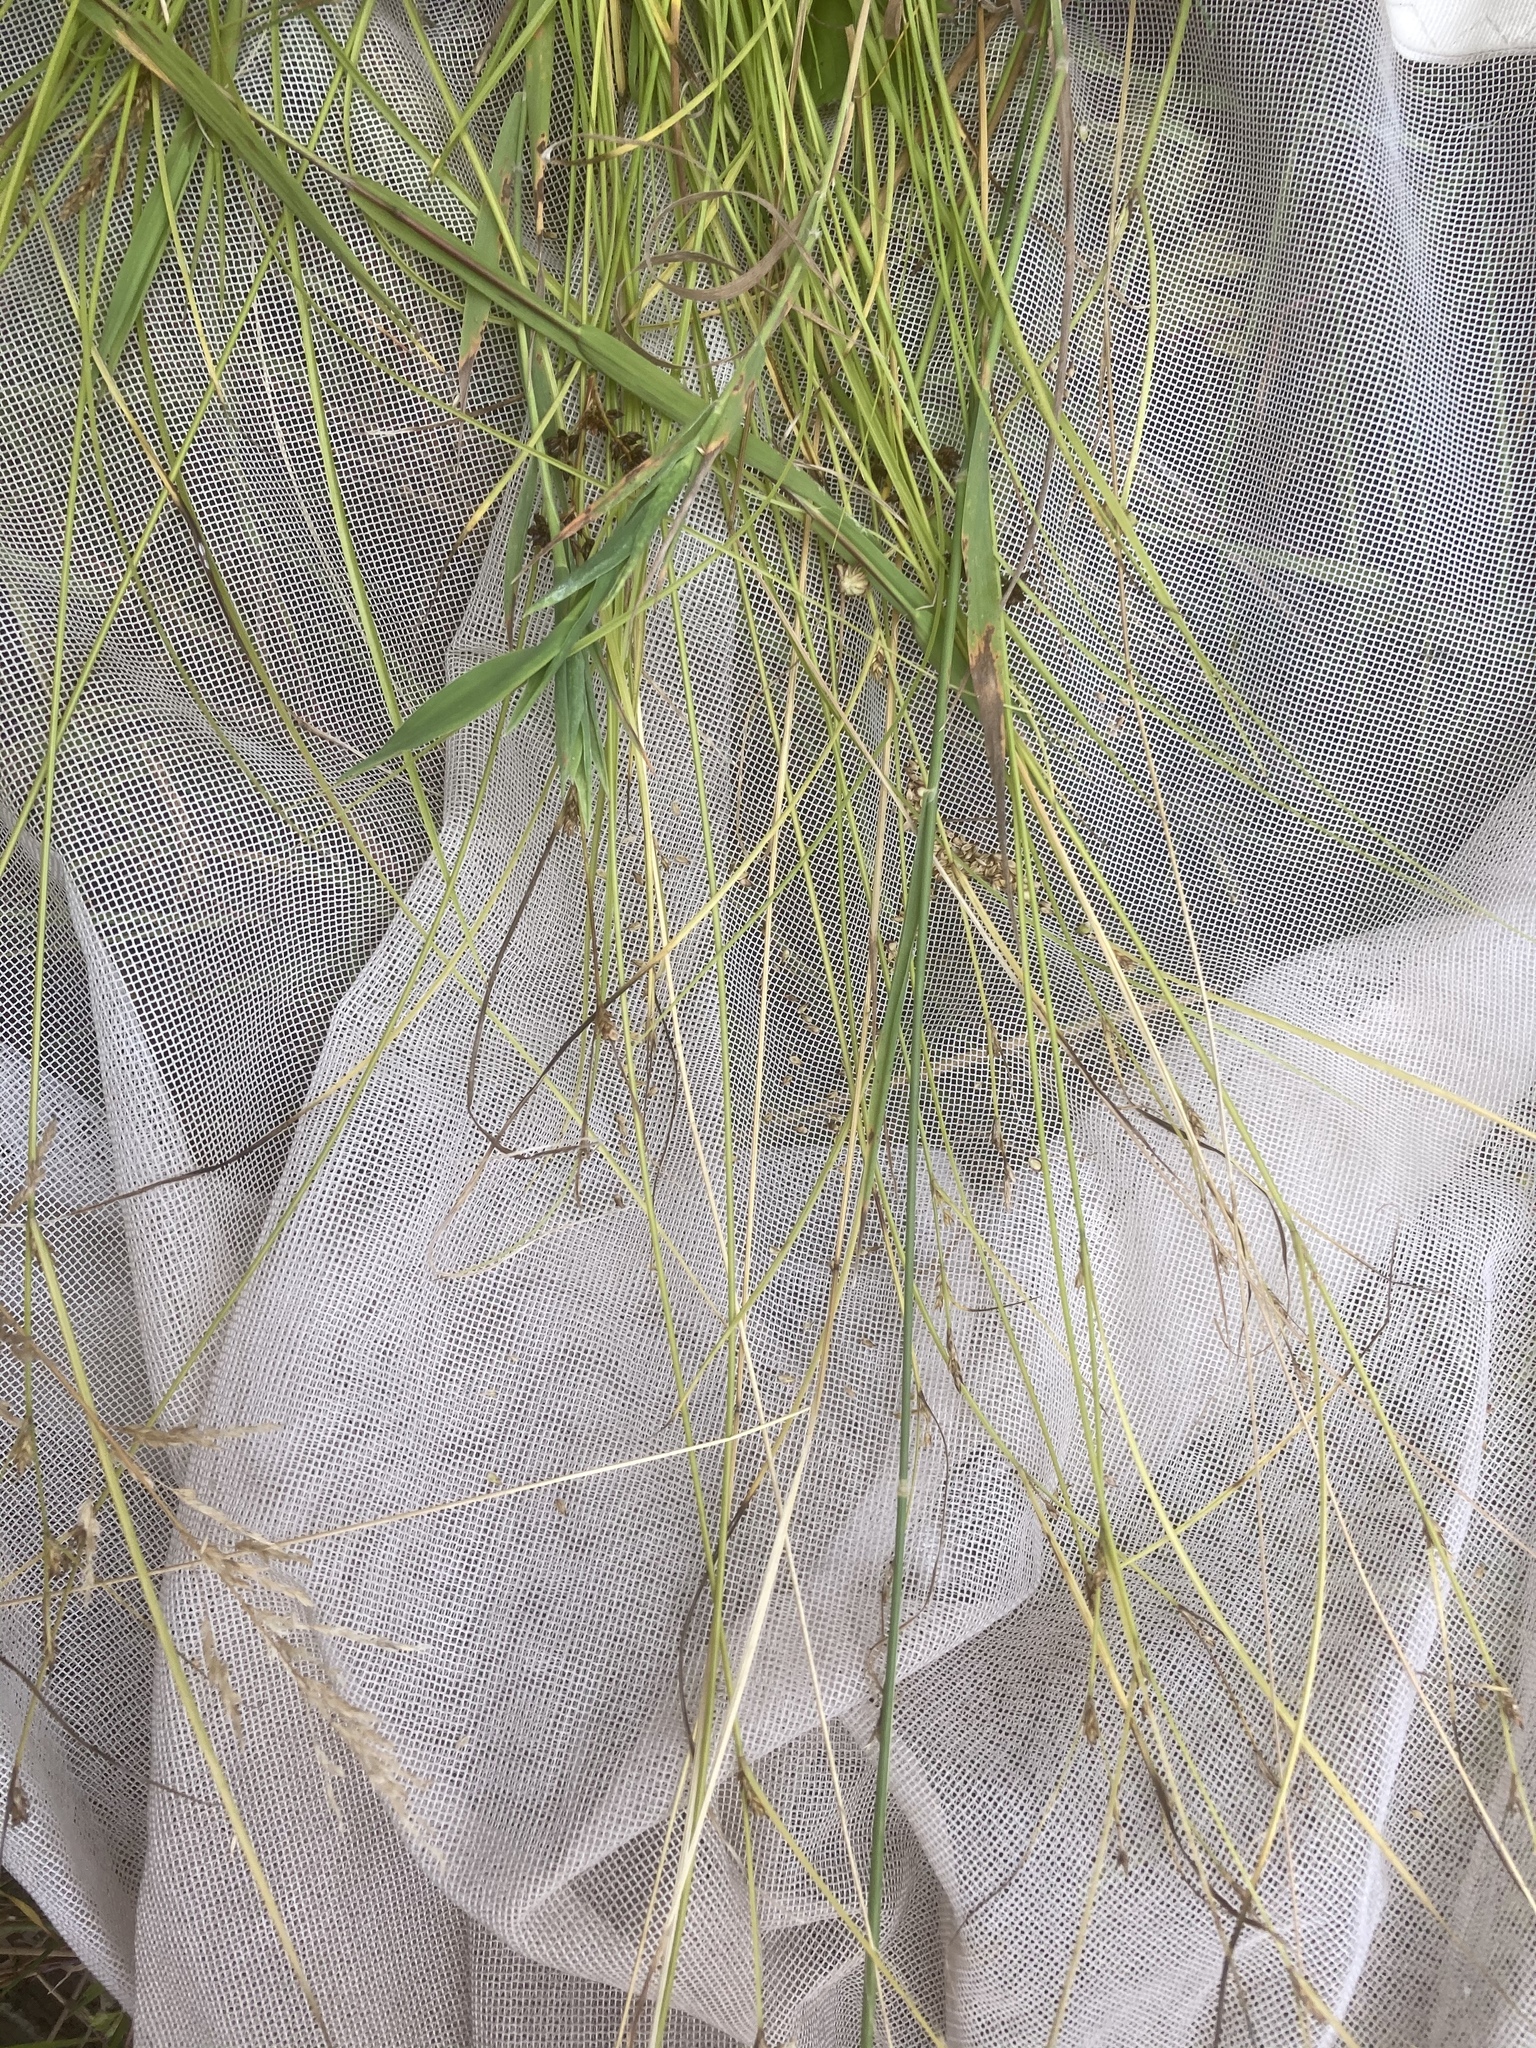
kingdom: Plantae
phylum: Tracheophyta
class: Liliopsida
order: Poales
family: Cyperaceae
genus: Carex
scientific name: Carex remota
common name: Remote sedge
